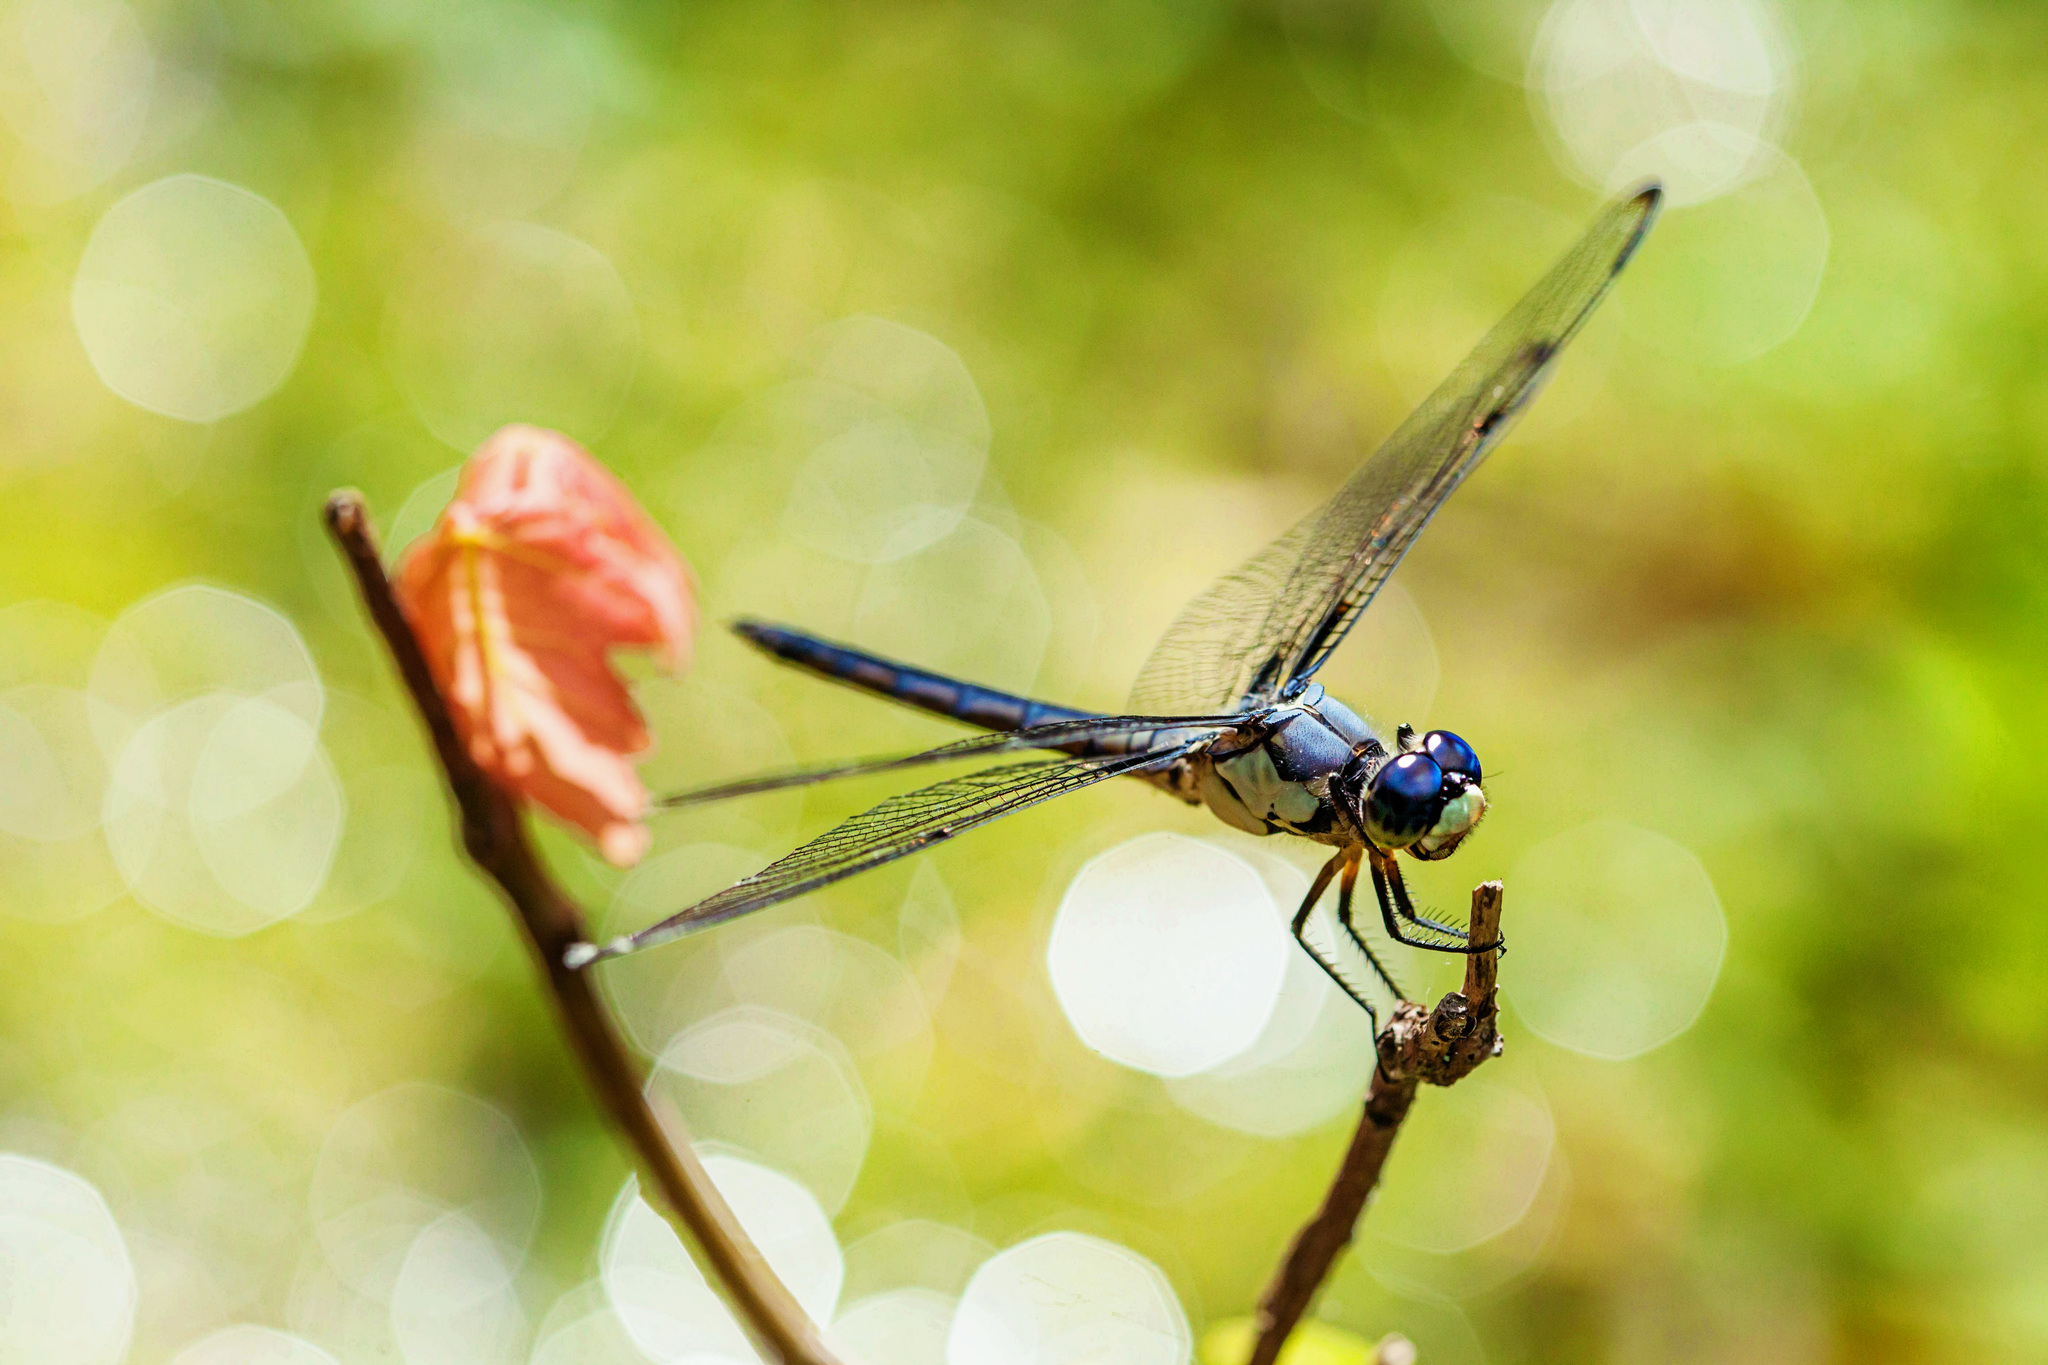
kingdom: Animalia
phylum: Arthropoda
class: Insecta
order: Odonata
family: Libellulidae
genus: Libellula
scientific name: Libellula vibrans
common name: Great blue skimmer
